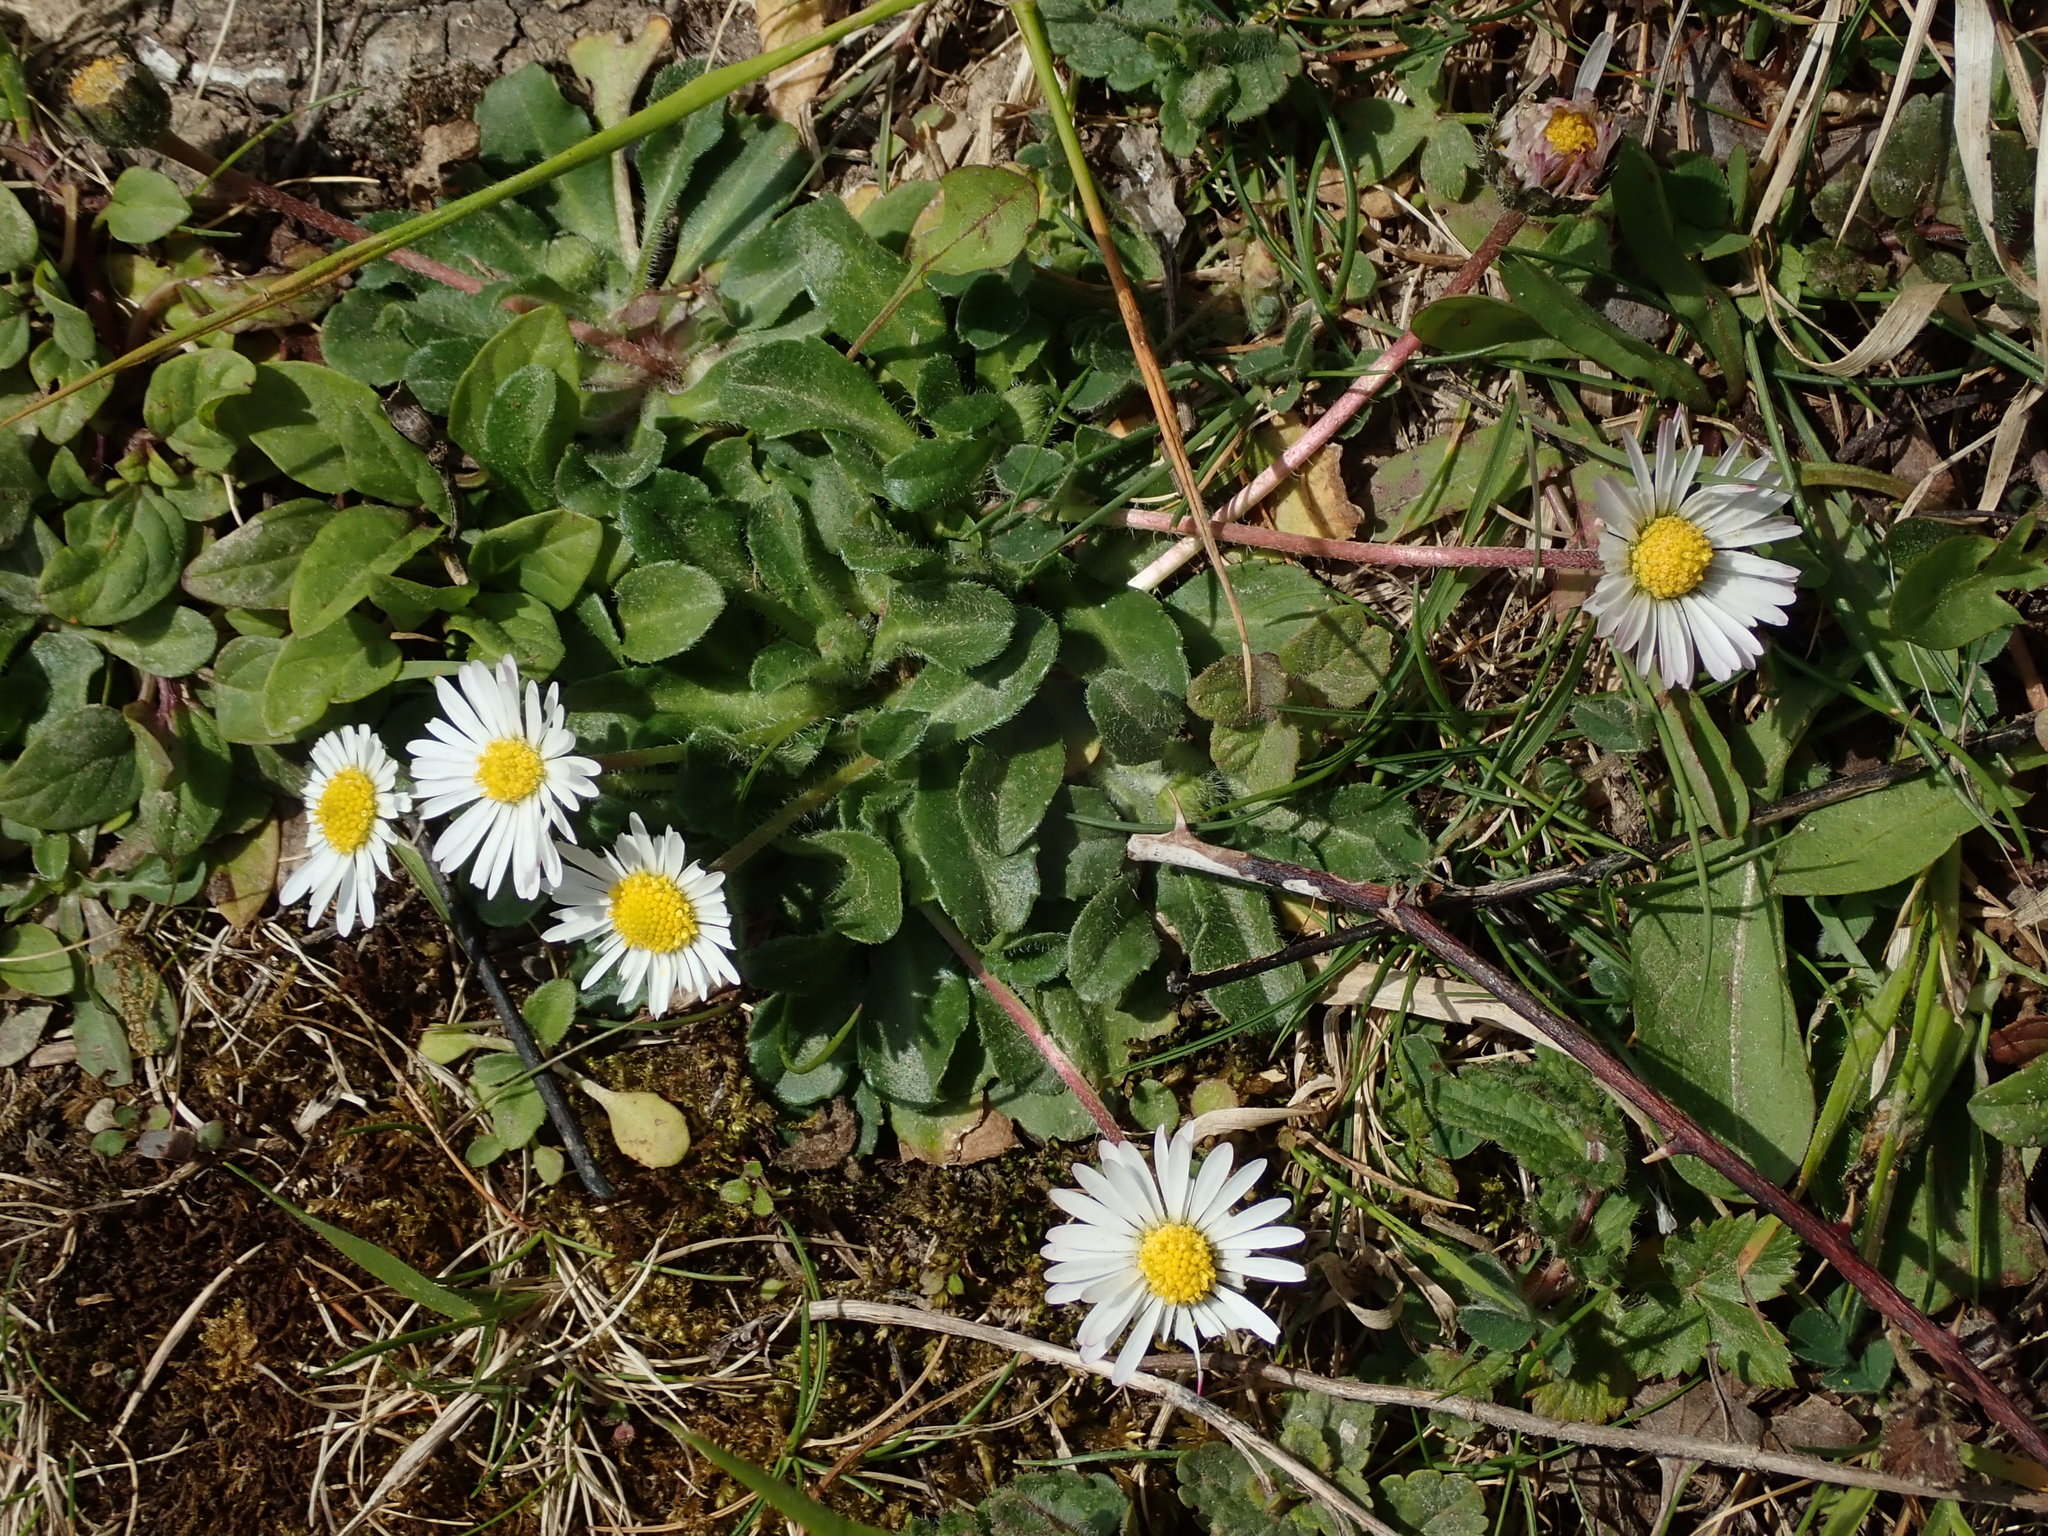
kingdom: Plantae
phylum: Tracheophyta
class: Magnoliopsida
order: Asterales
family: Asteraceae
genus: Bellis
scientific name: Bellis perennis
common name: Lawndaisy
